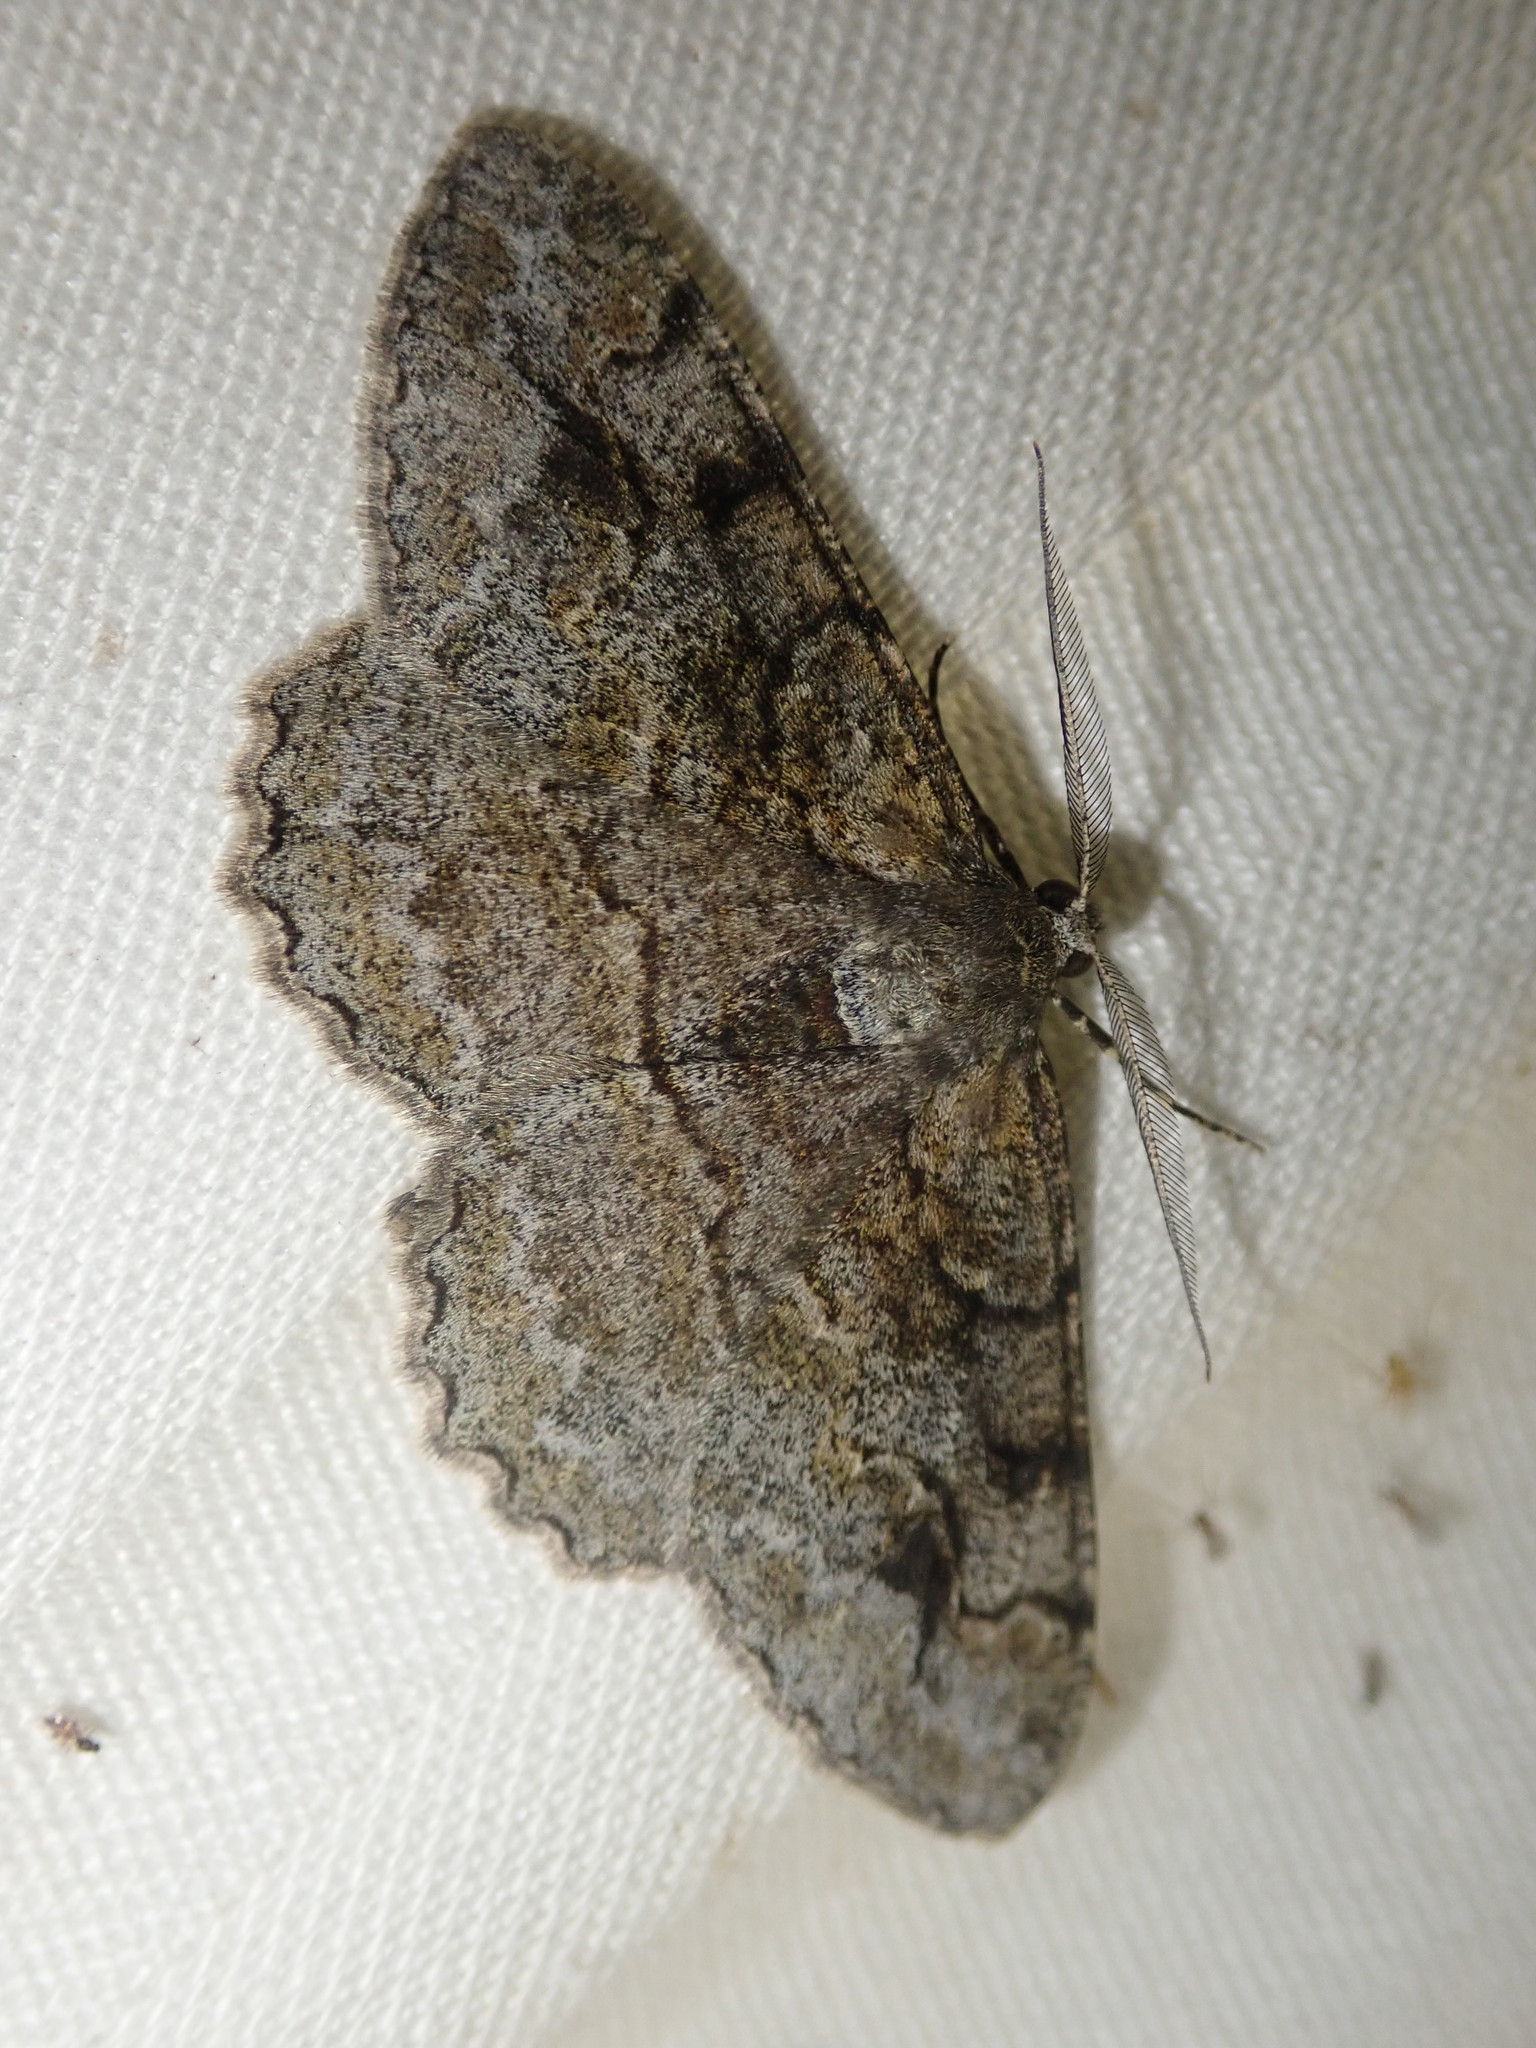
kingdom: Animalia
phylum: Arthropoda
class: Insecta
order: Lepidoptera
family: Geometridae
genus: Alcis
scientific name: Alcis repandata
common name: Mottled beauty
